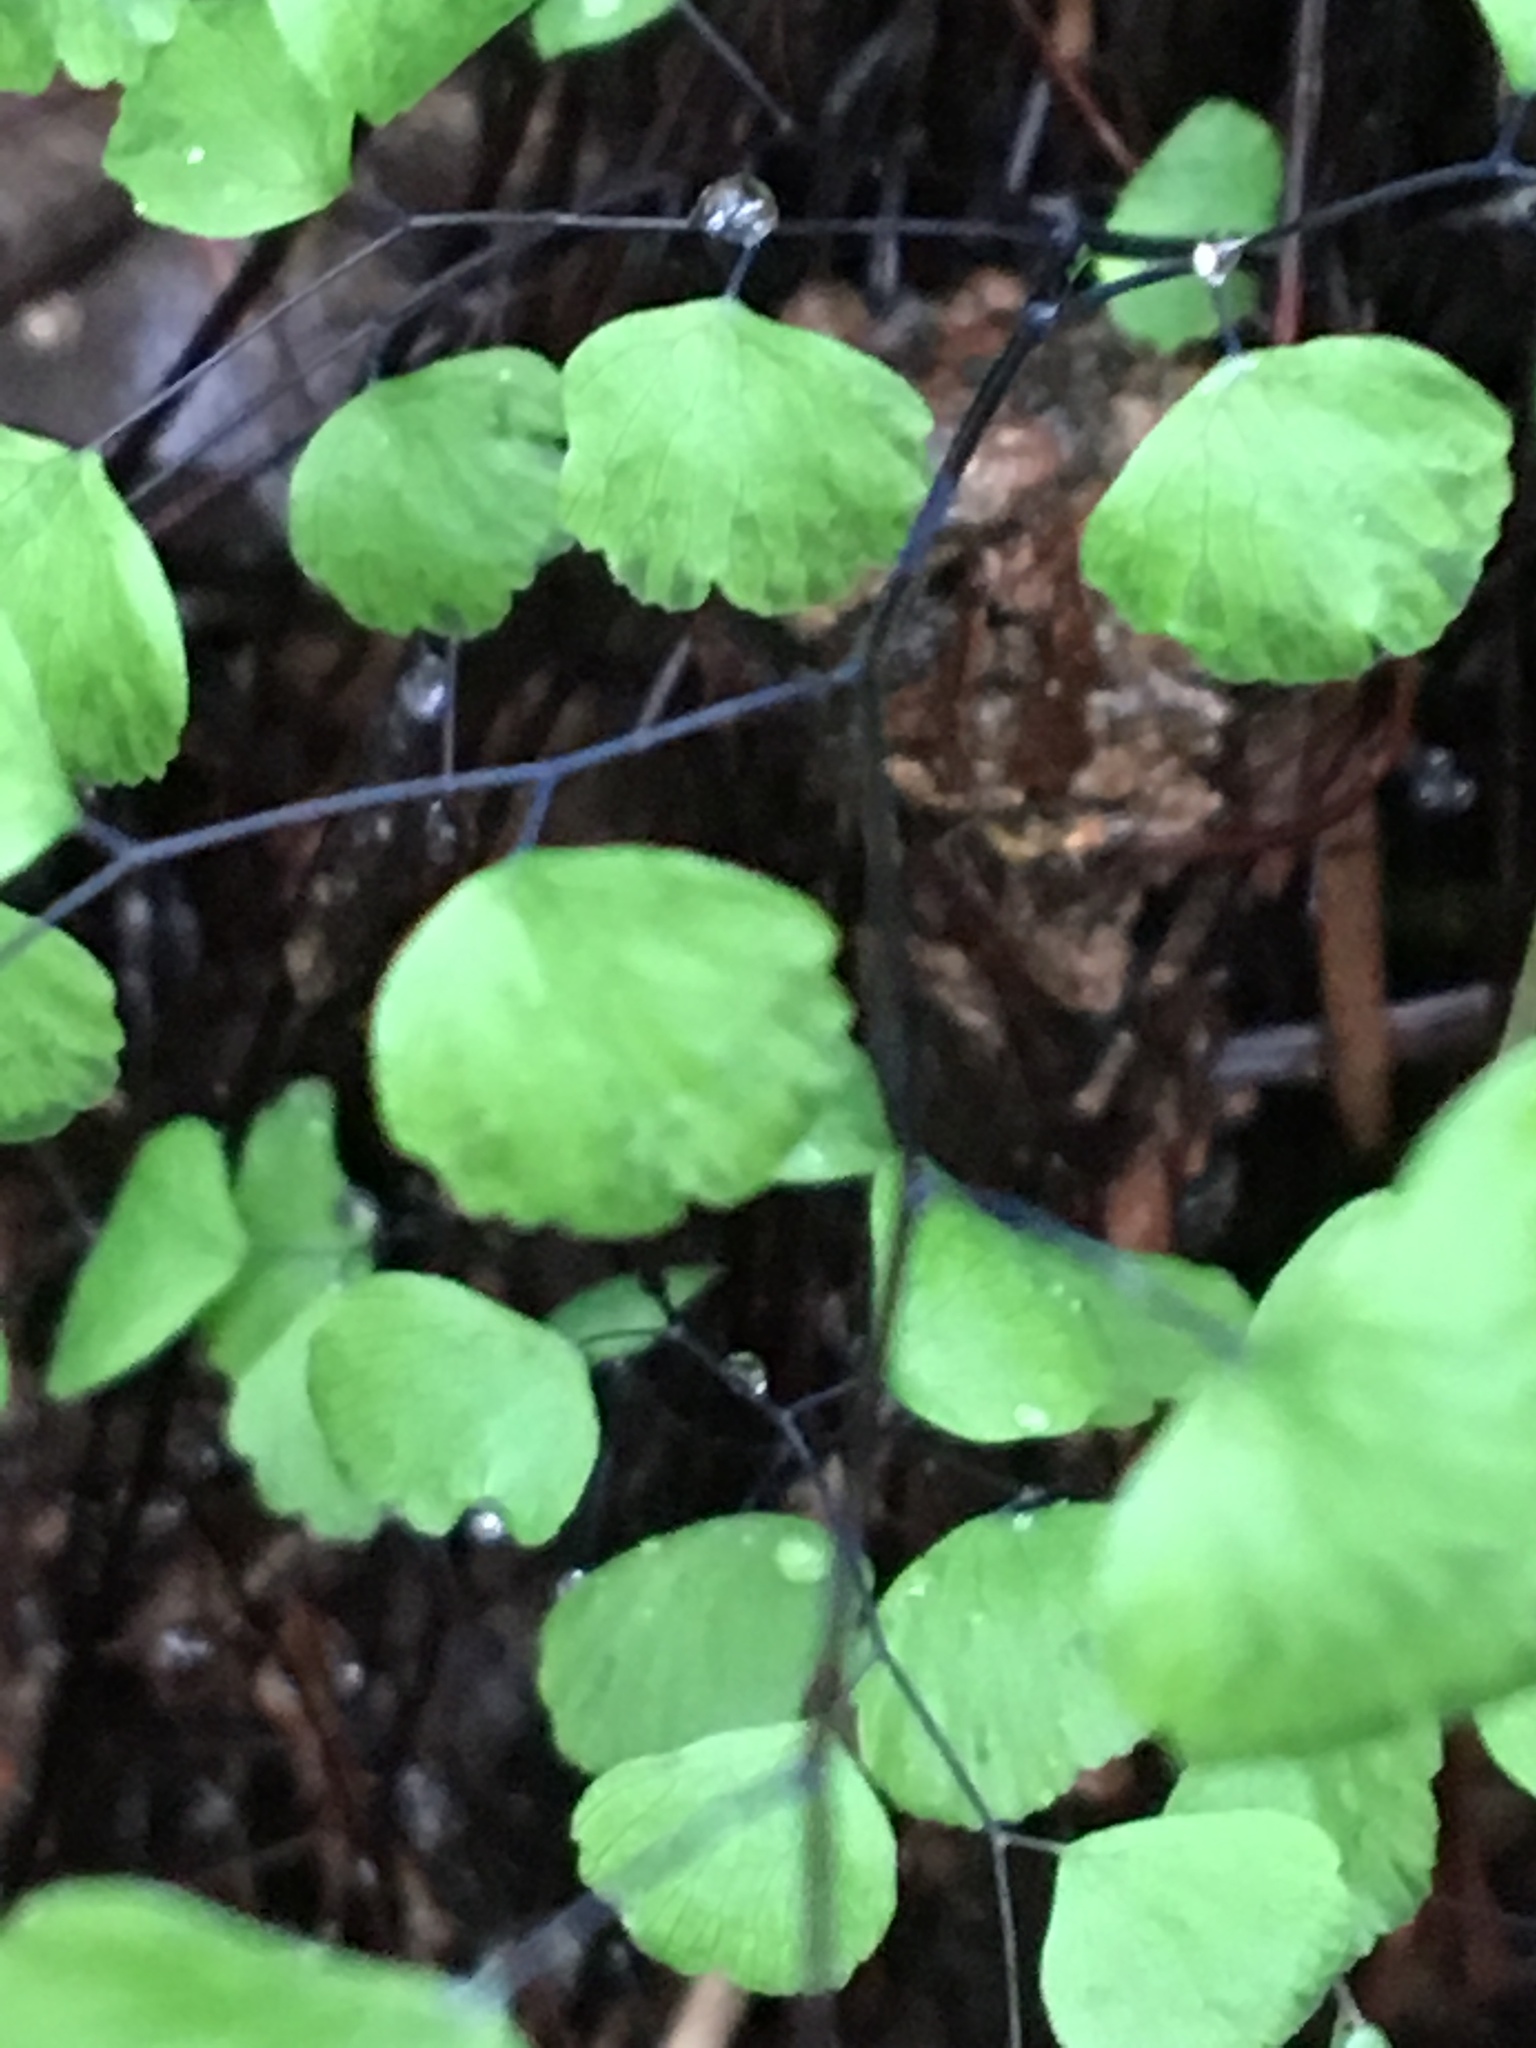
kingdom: Plantae
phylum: Tracheophyta
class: Polypodiopsida
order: Polypodiales
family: Pteridaceae
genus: Adiantum
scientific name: Adiantum jordanii
